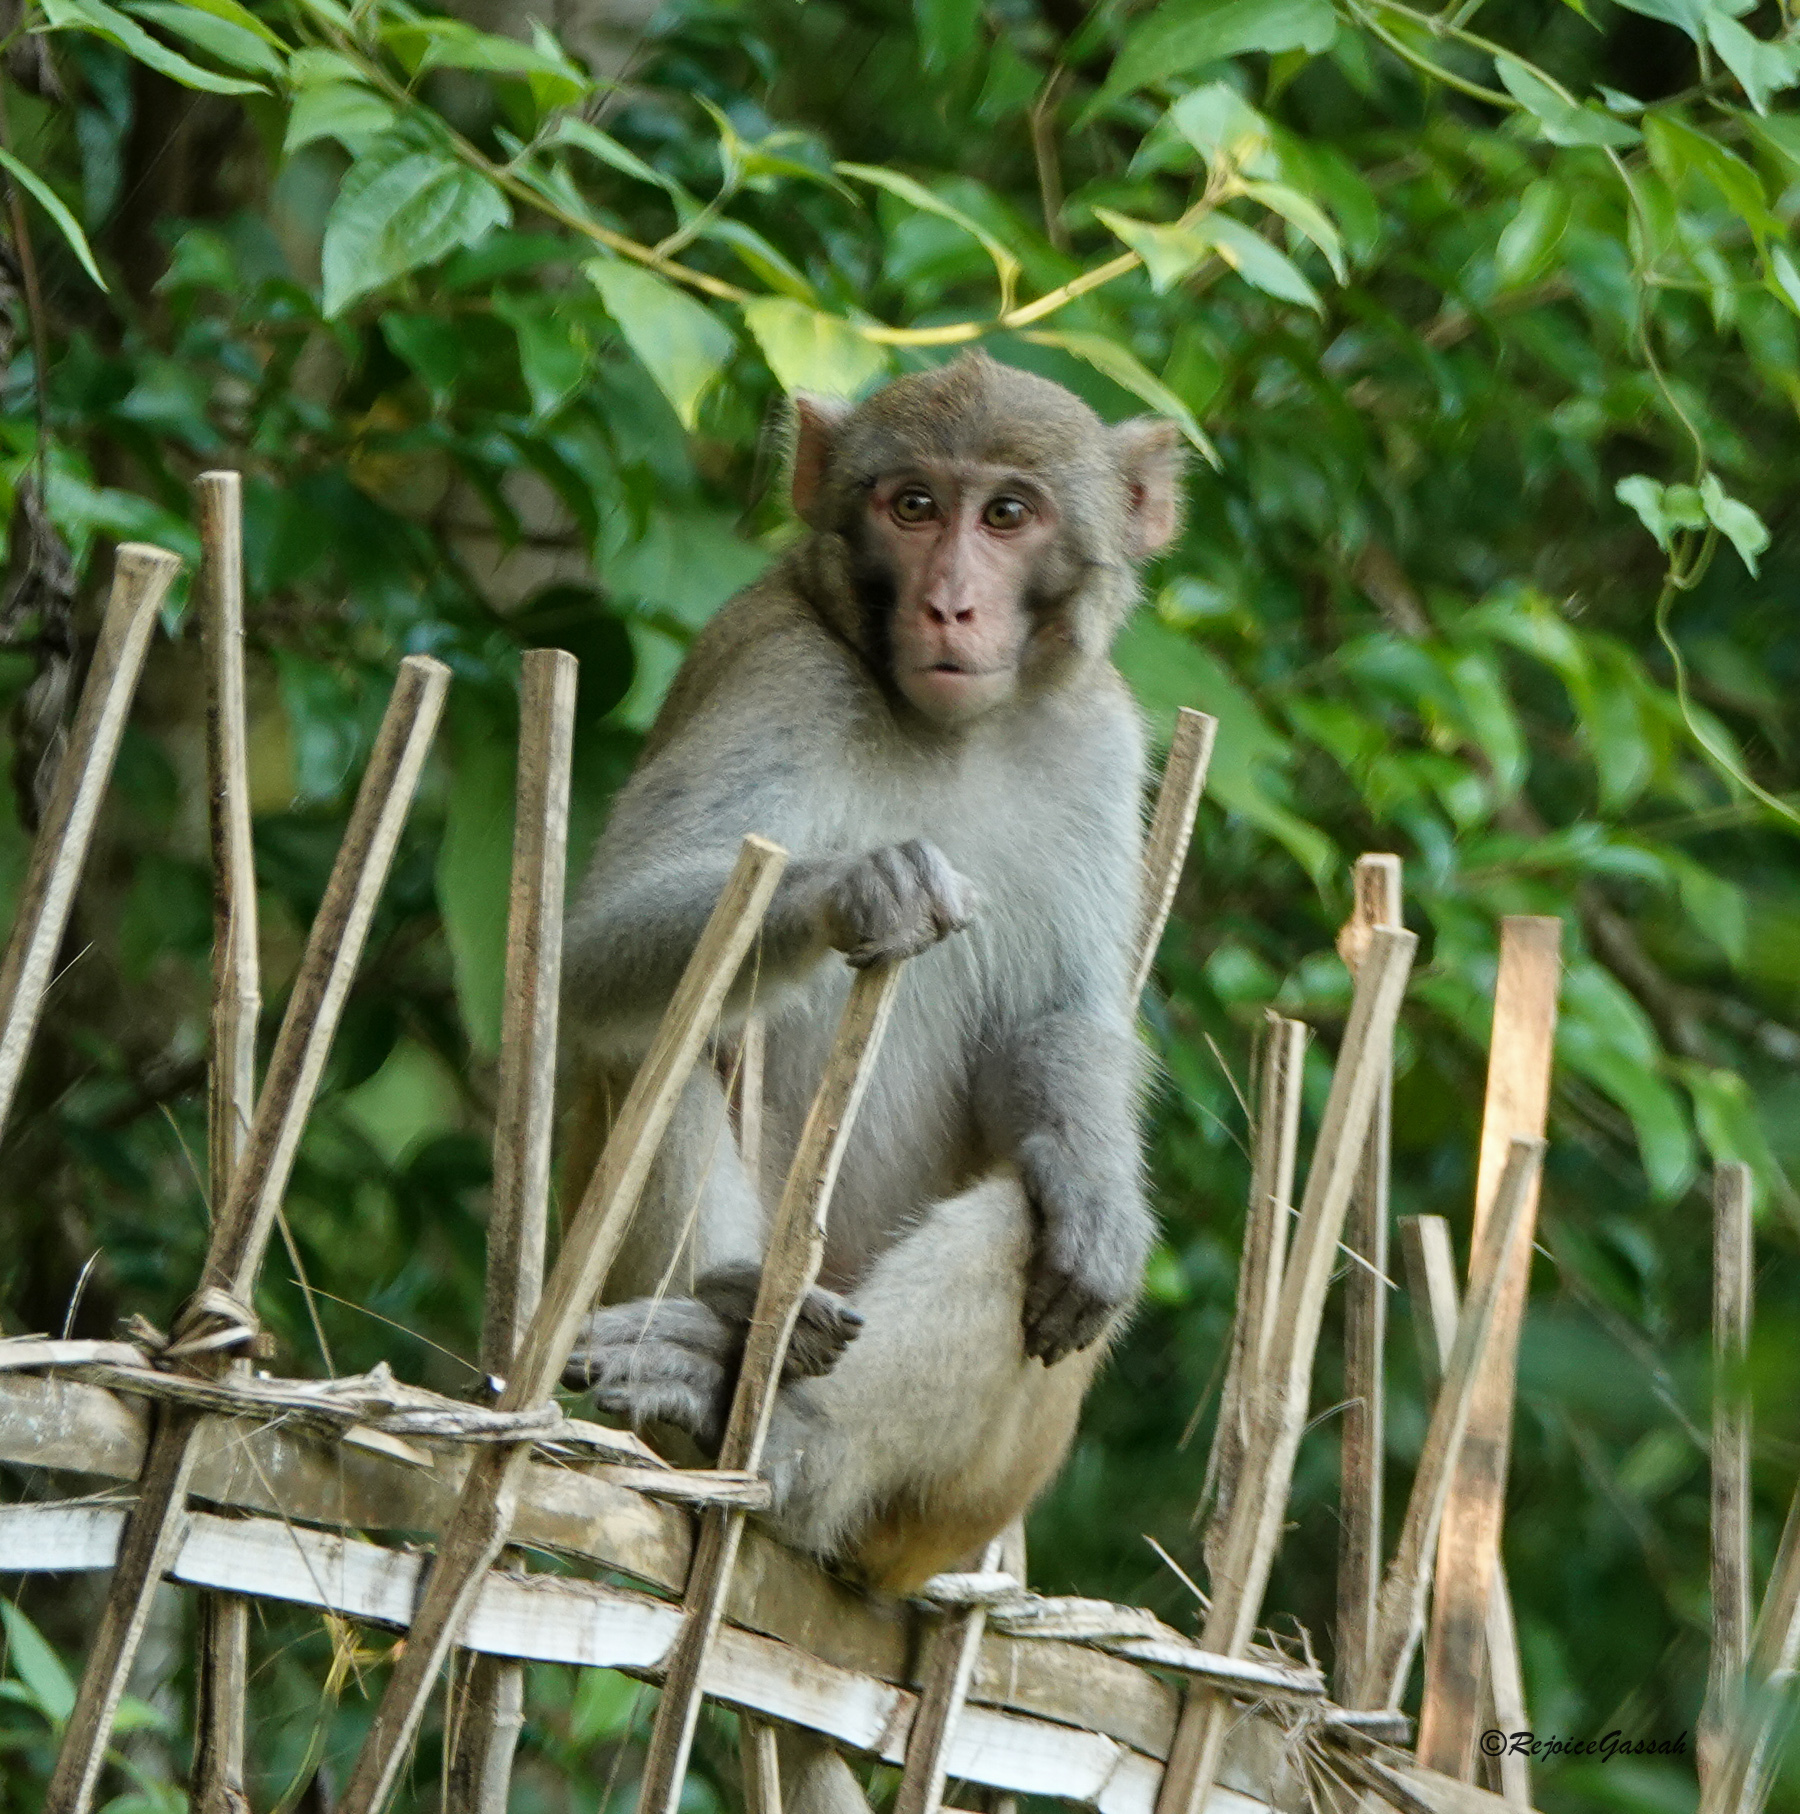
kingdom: Animalia
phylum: Chordata
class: Mammalia
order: Primates
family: Cercopithecidae
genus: Macaca
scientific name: Macaca mulatta
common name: Rhesus monkey
